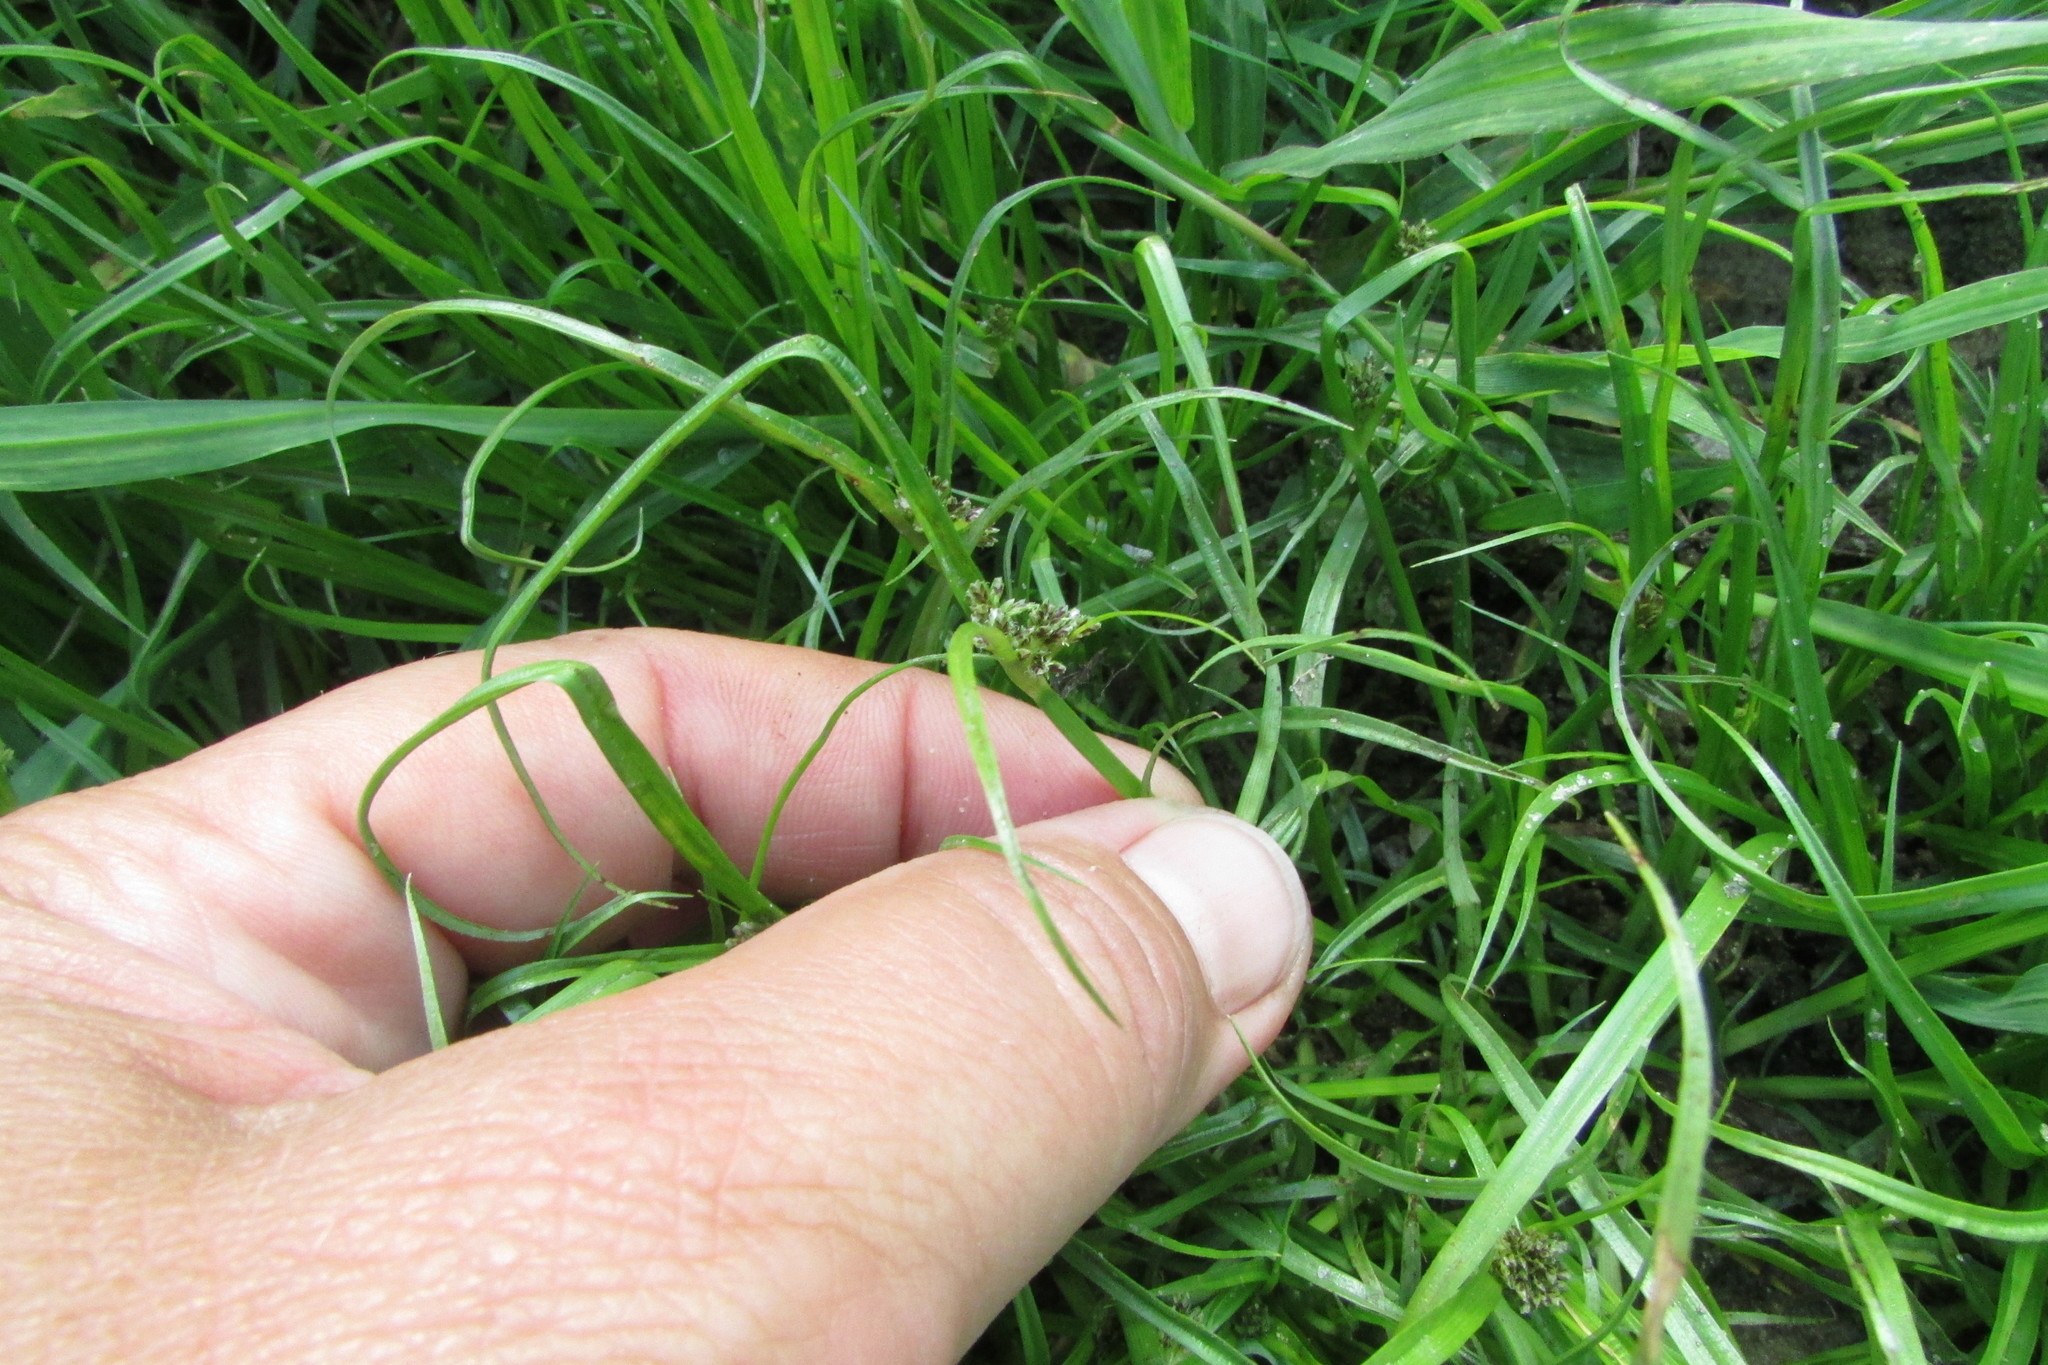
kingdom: Plantae
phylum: Tracheophyta
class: Liliopsida
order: Poales
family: Cyperaceae
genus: Cyperus
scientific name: Cyperus fuscus
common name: Brown galingale
